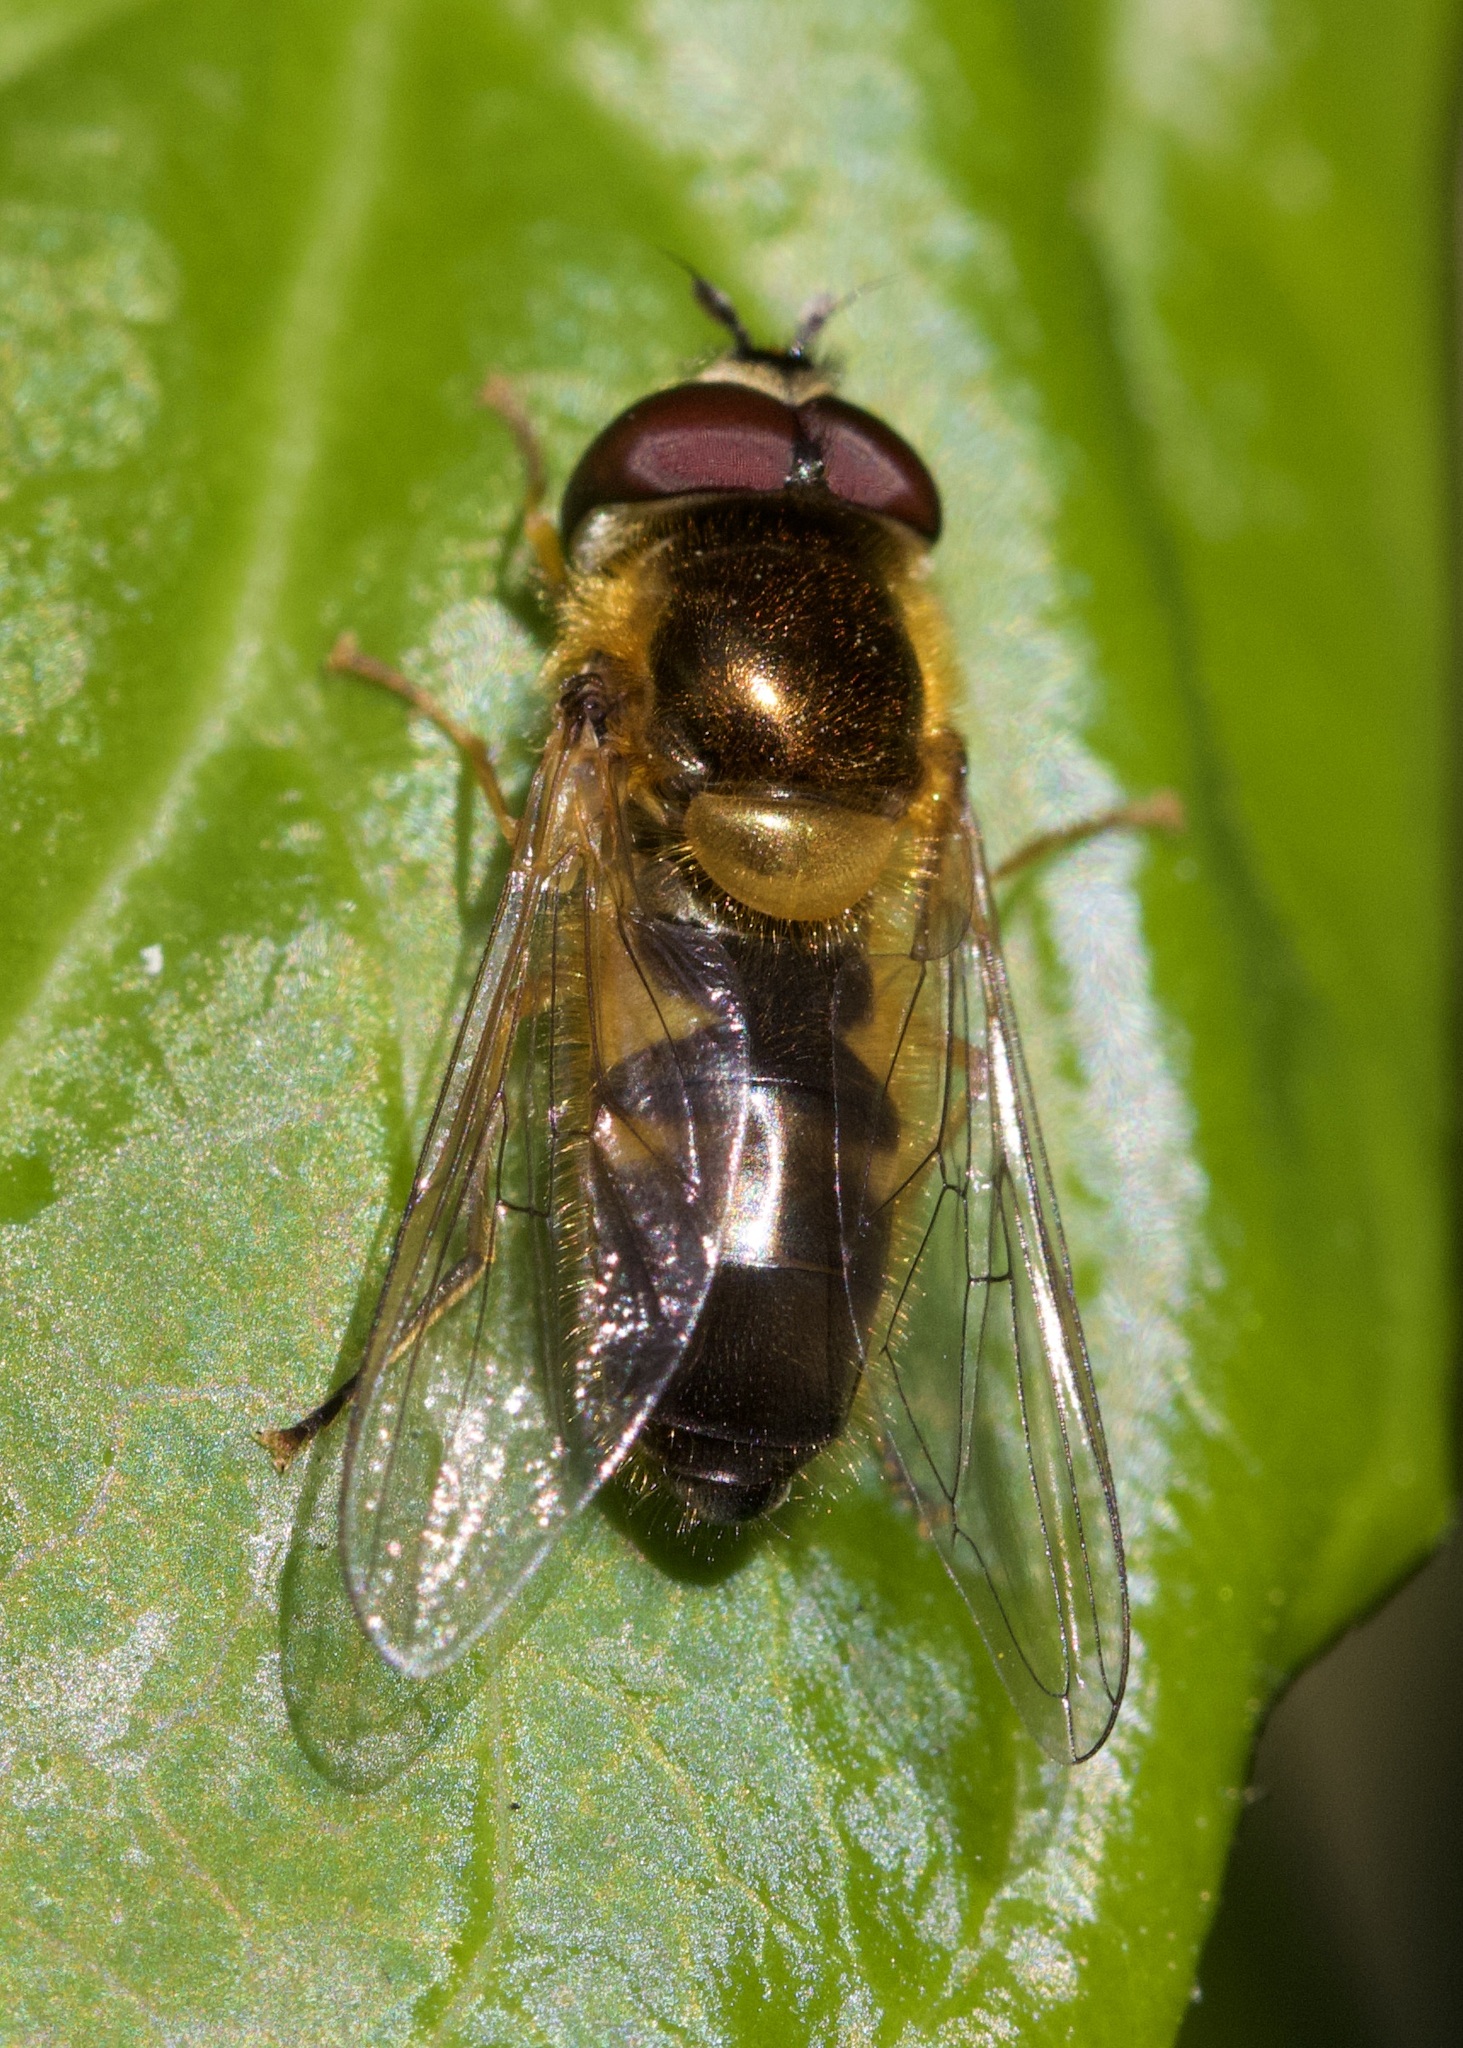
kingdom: Animalia
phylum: Arthropoda
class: Insecta
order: Diptera
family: Syrphidae
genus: Epistrophe
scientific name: Epistrophe eligans
